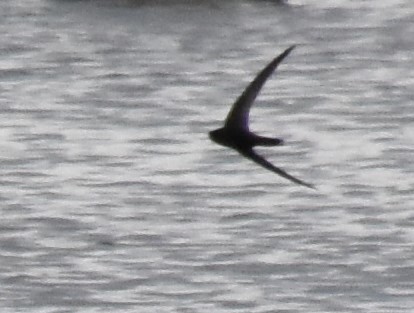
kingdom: Animalia
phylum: Chordata
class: Aves
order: Apodiformes
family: Apodidae
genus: Apus
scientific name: Apus apus
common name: Common swift
